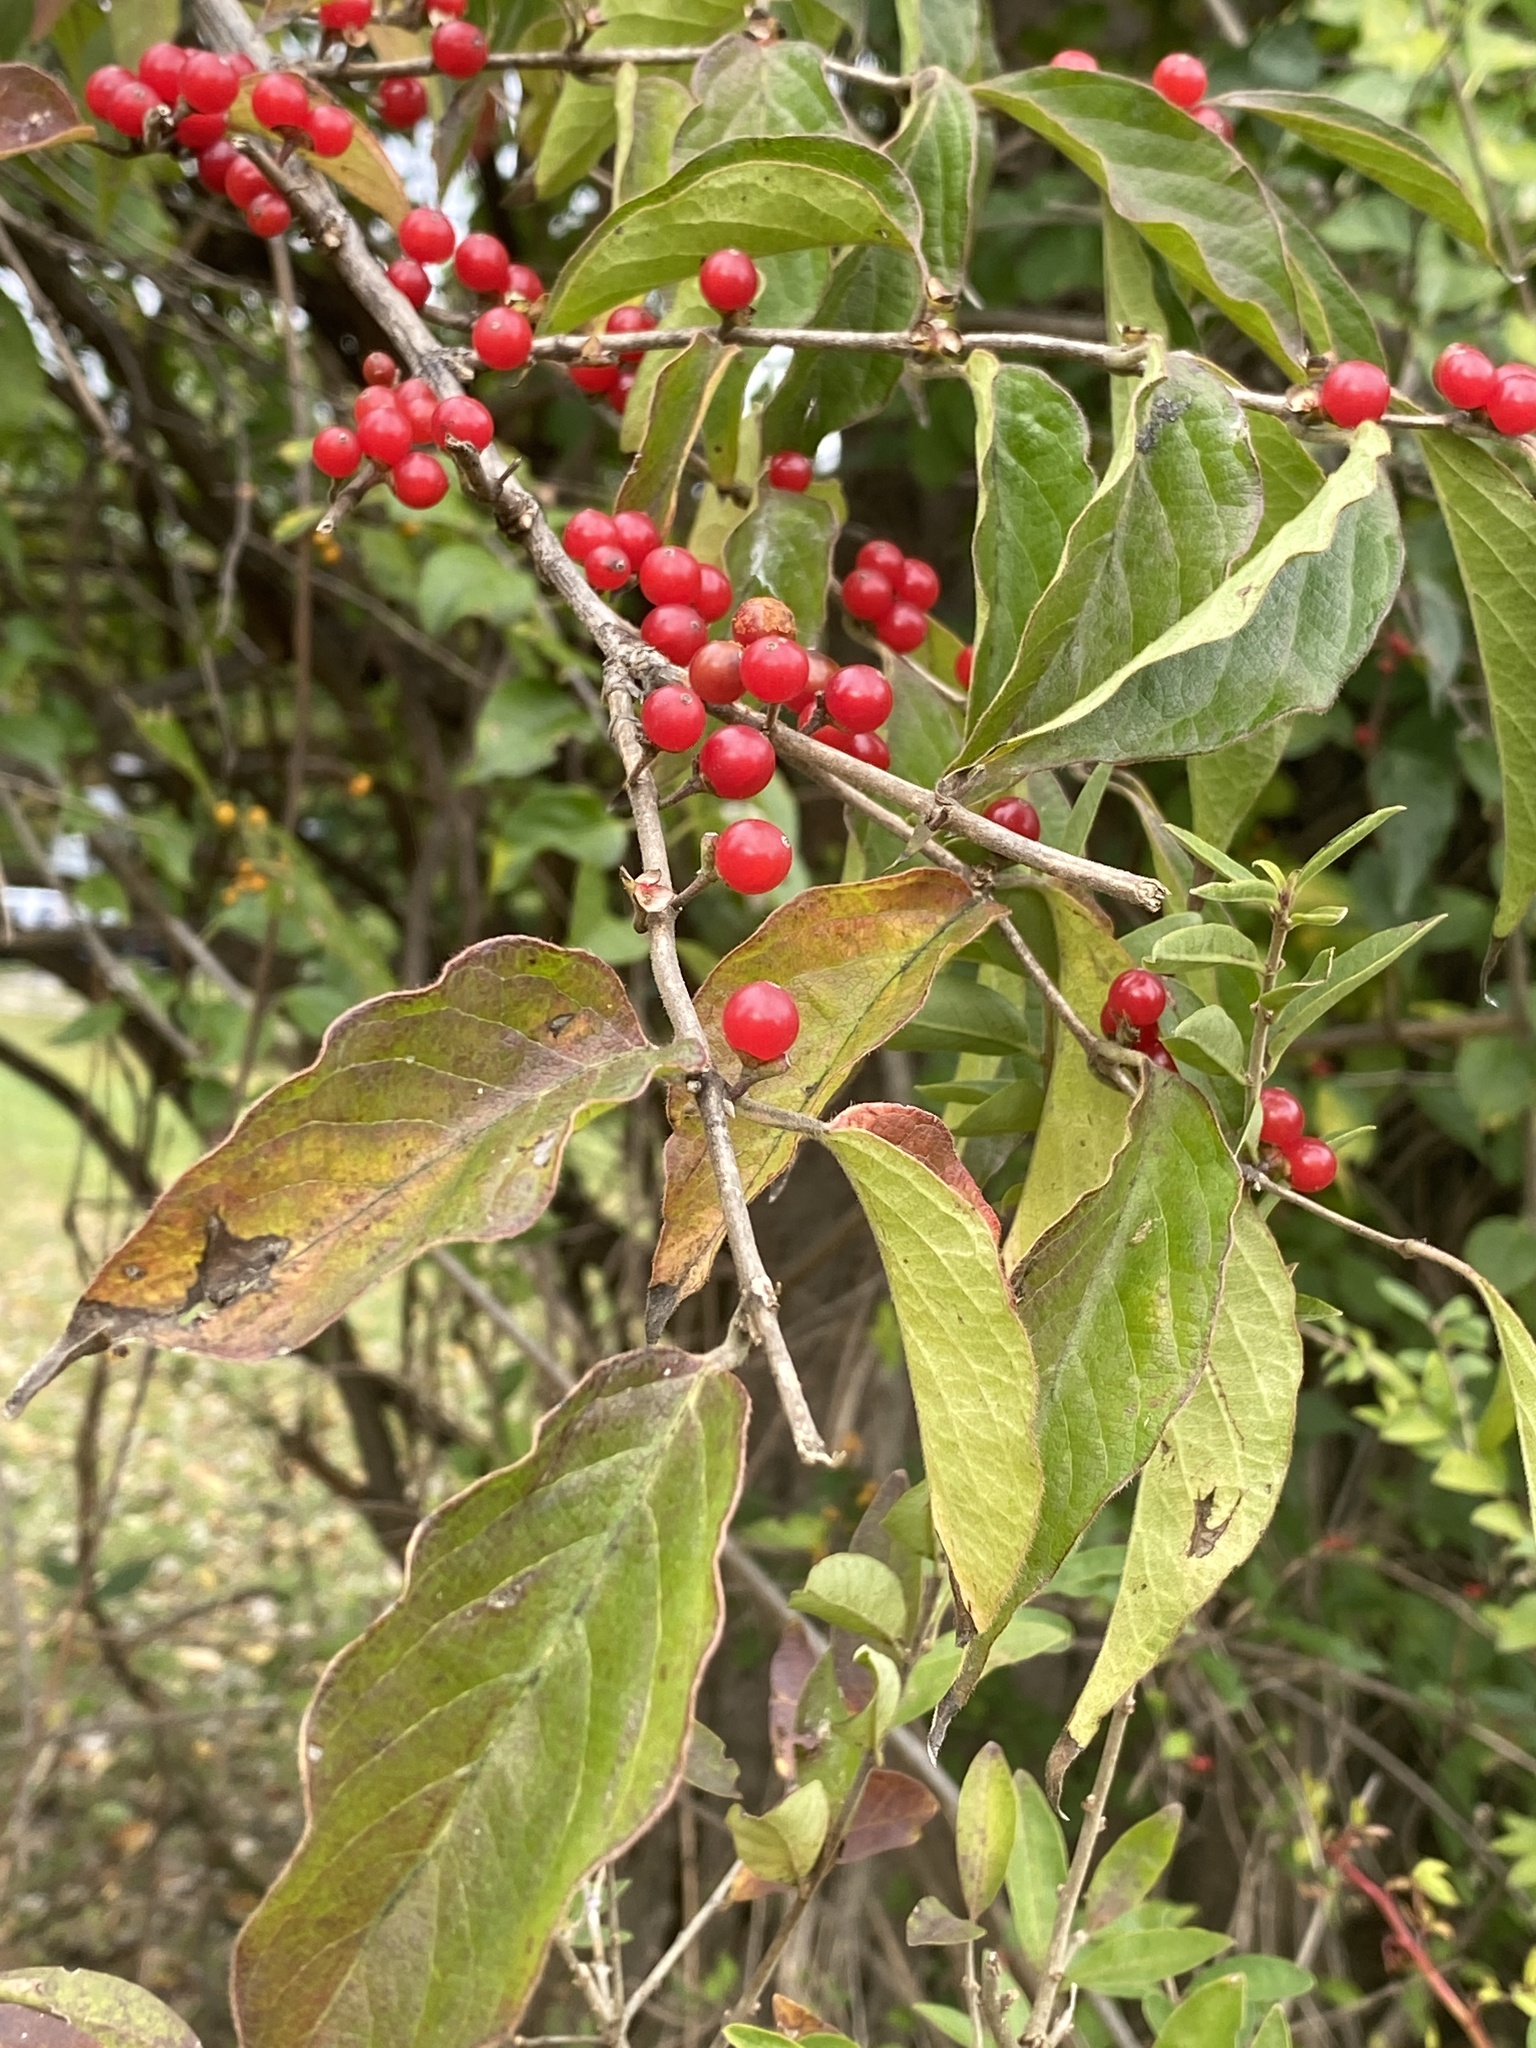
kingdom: Plantae
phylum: Tracheophyta
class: Magnoliopsida
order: Dipsacales
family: Caprifoliaceae
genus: Lonicera
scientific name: Lonicera maackii
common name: Amur honeysuckle
